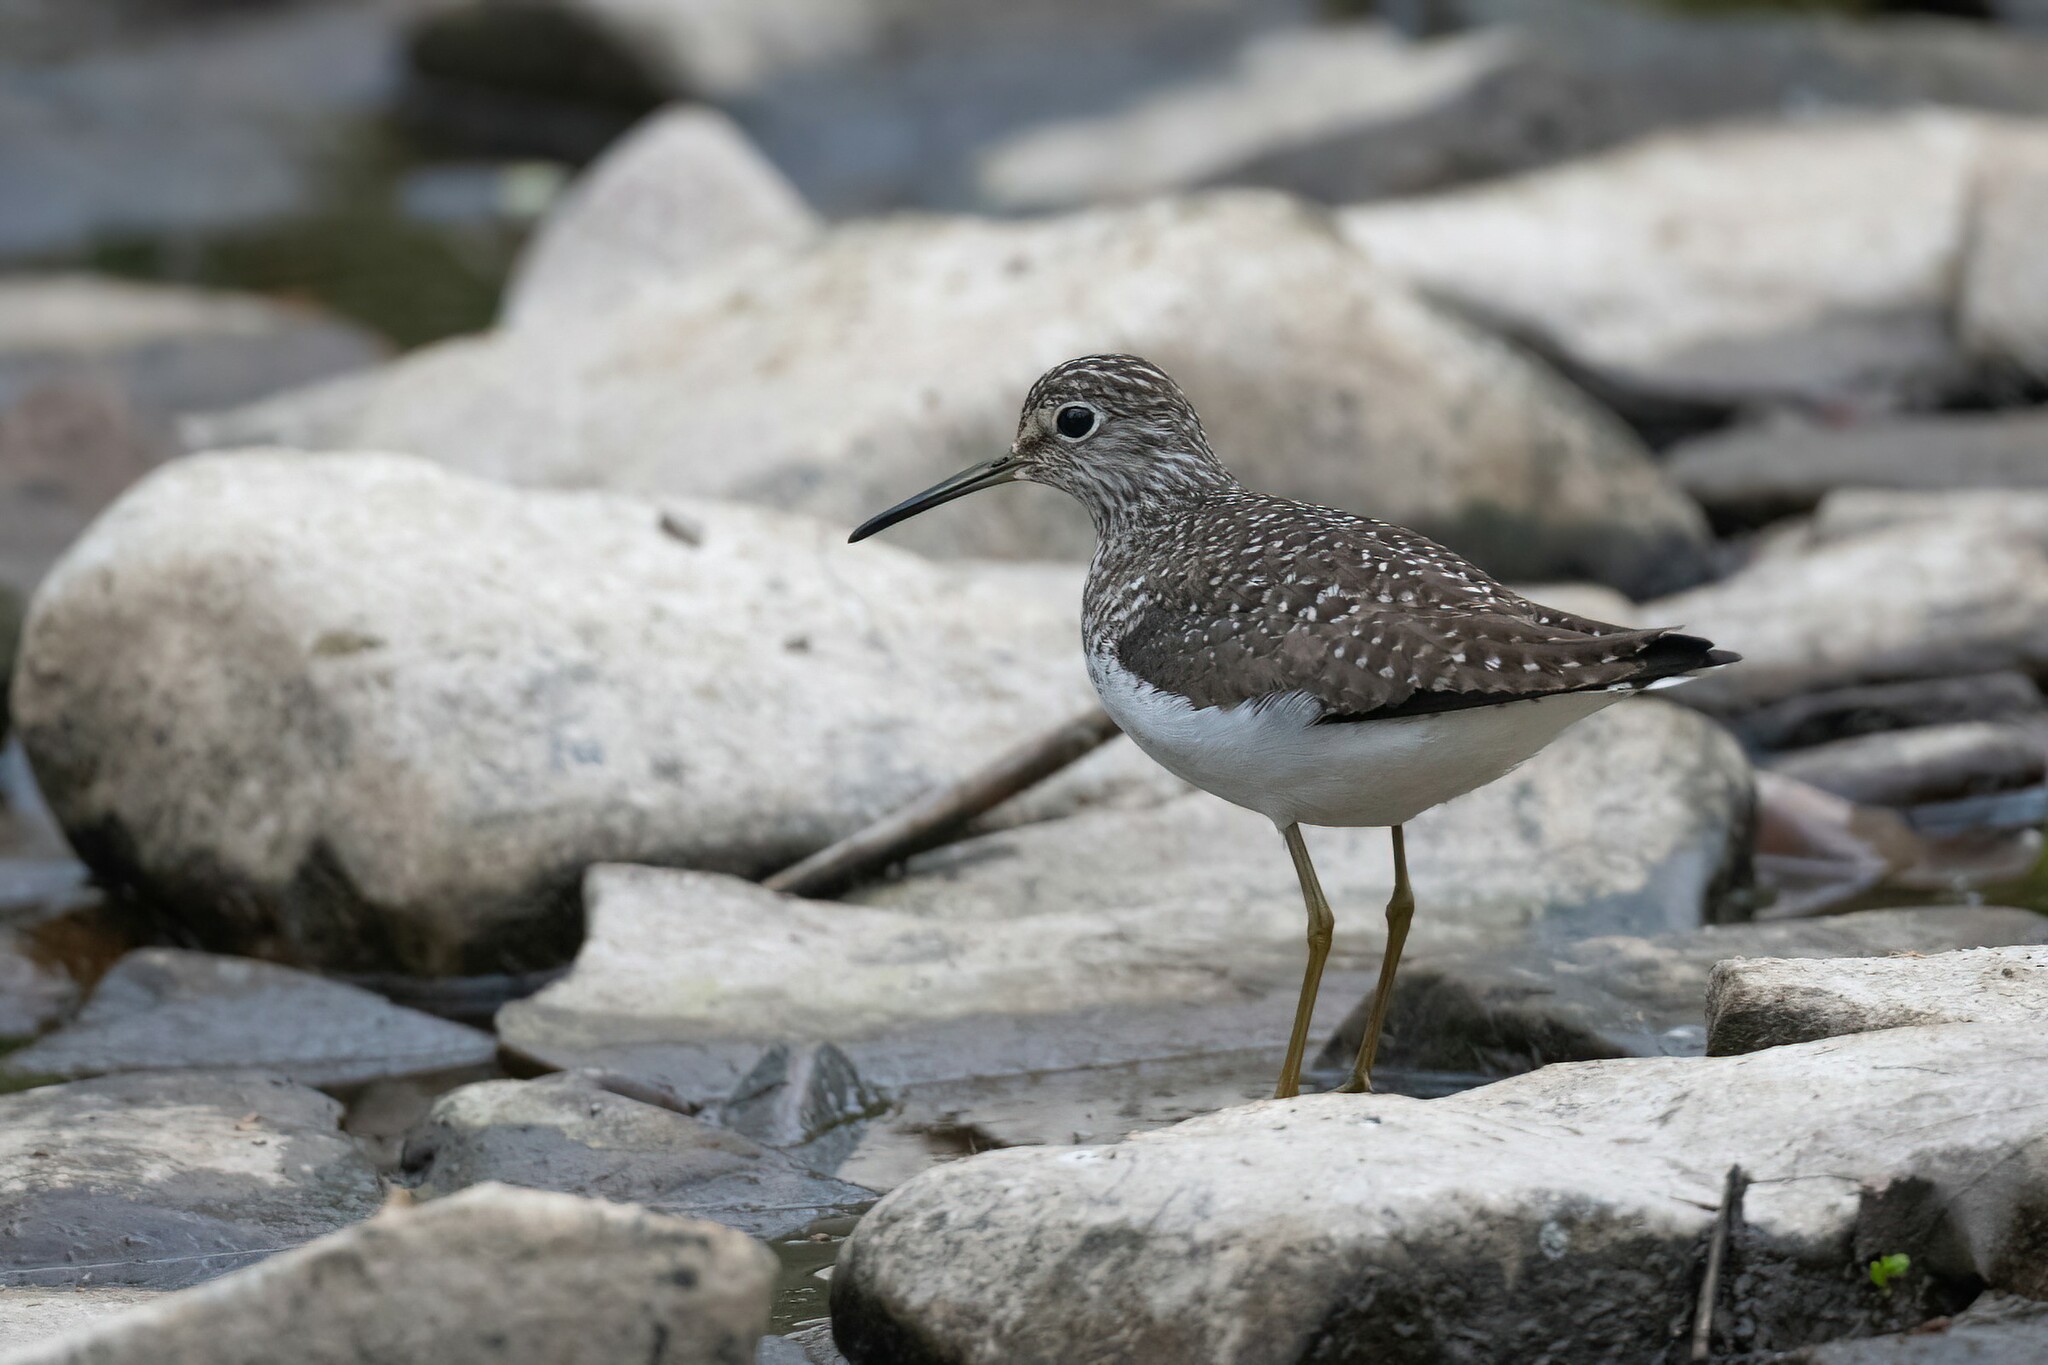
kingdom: Animalia
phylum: Chordata
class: Aves
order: Charadriiformes
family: Scolopacidae
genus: Tringa
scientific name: Tringa solitaria
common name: Solitary sandpiper
